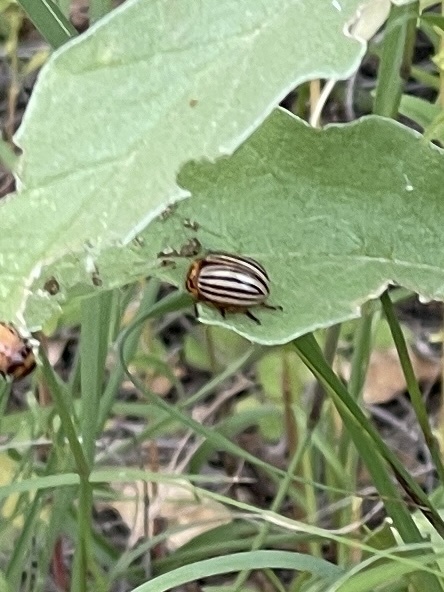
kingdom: Animalia
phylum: Arthropoda
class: Insecta
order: Coleoptera
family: Chrysomelidae
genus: Leptinotarsa
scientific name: Leptinotarsa decemlineata
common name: Colorado potato beetle
